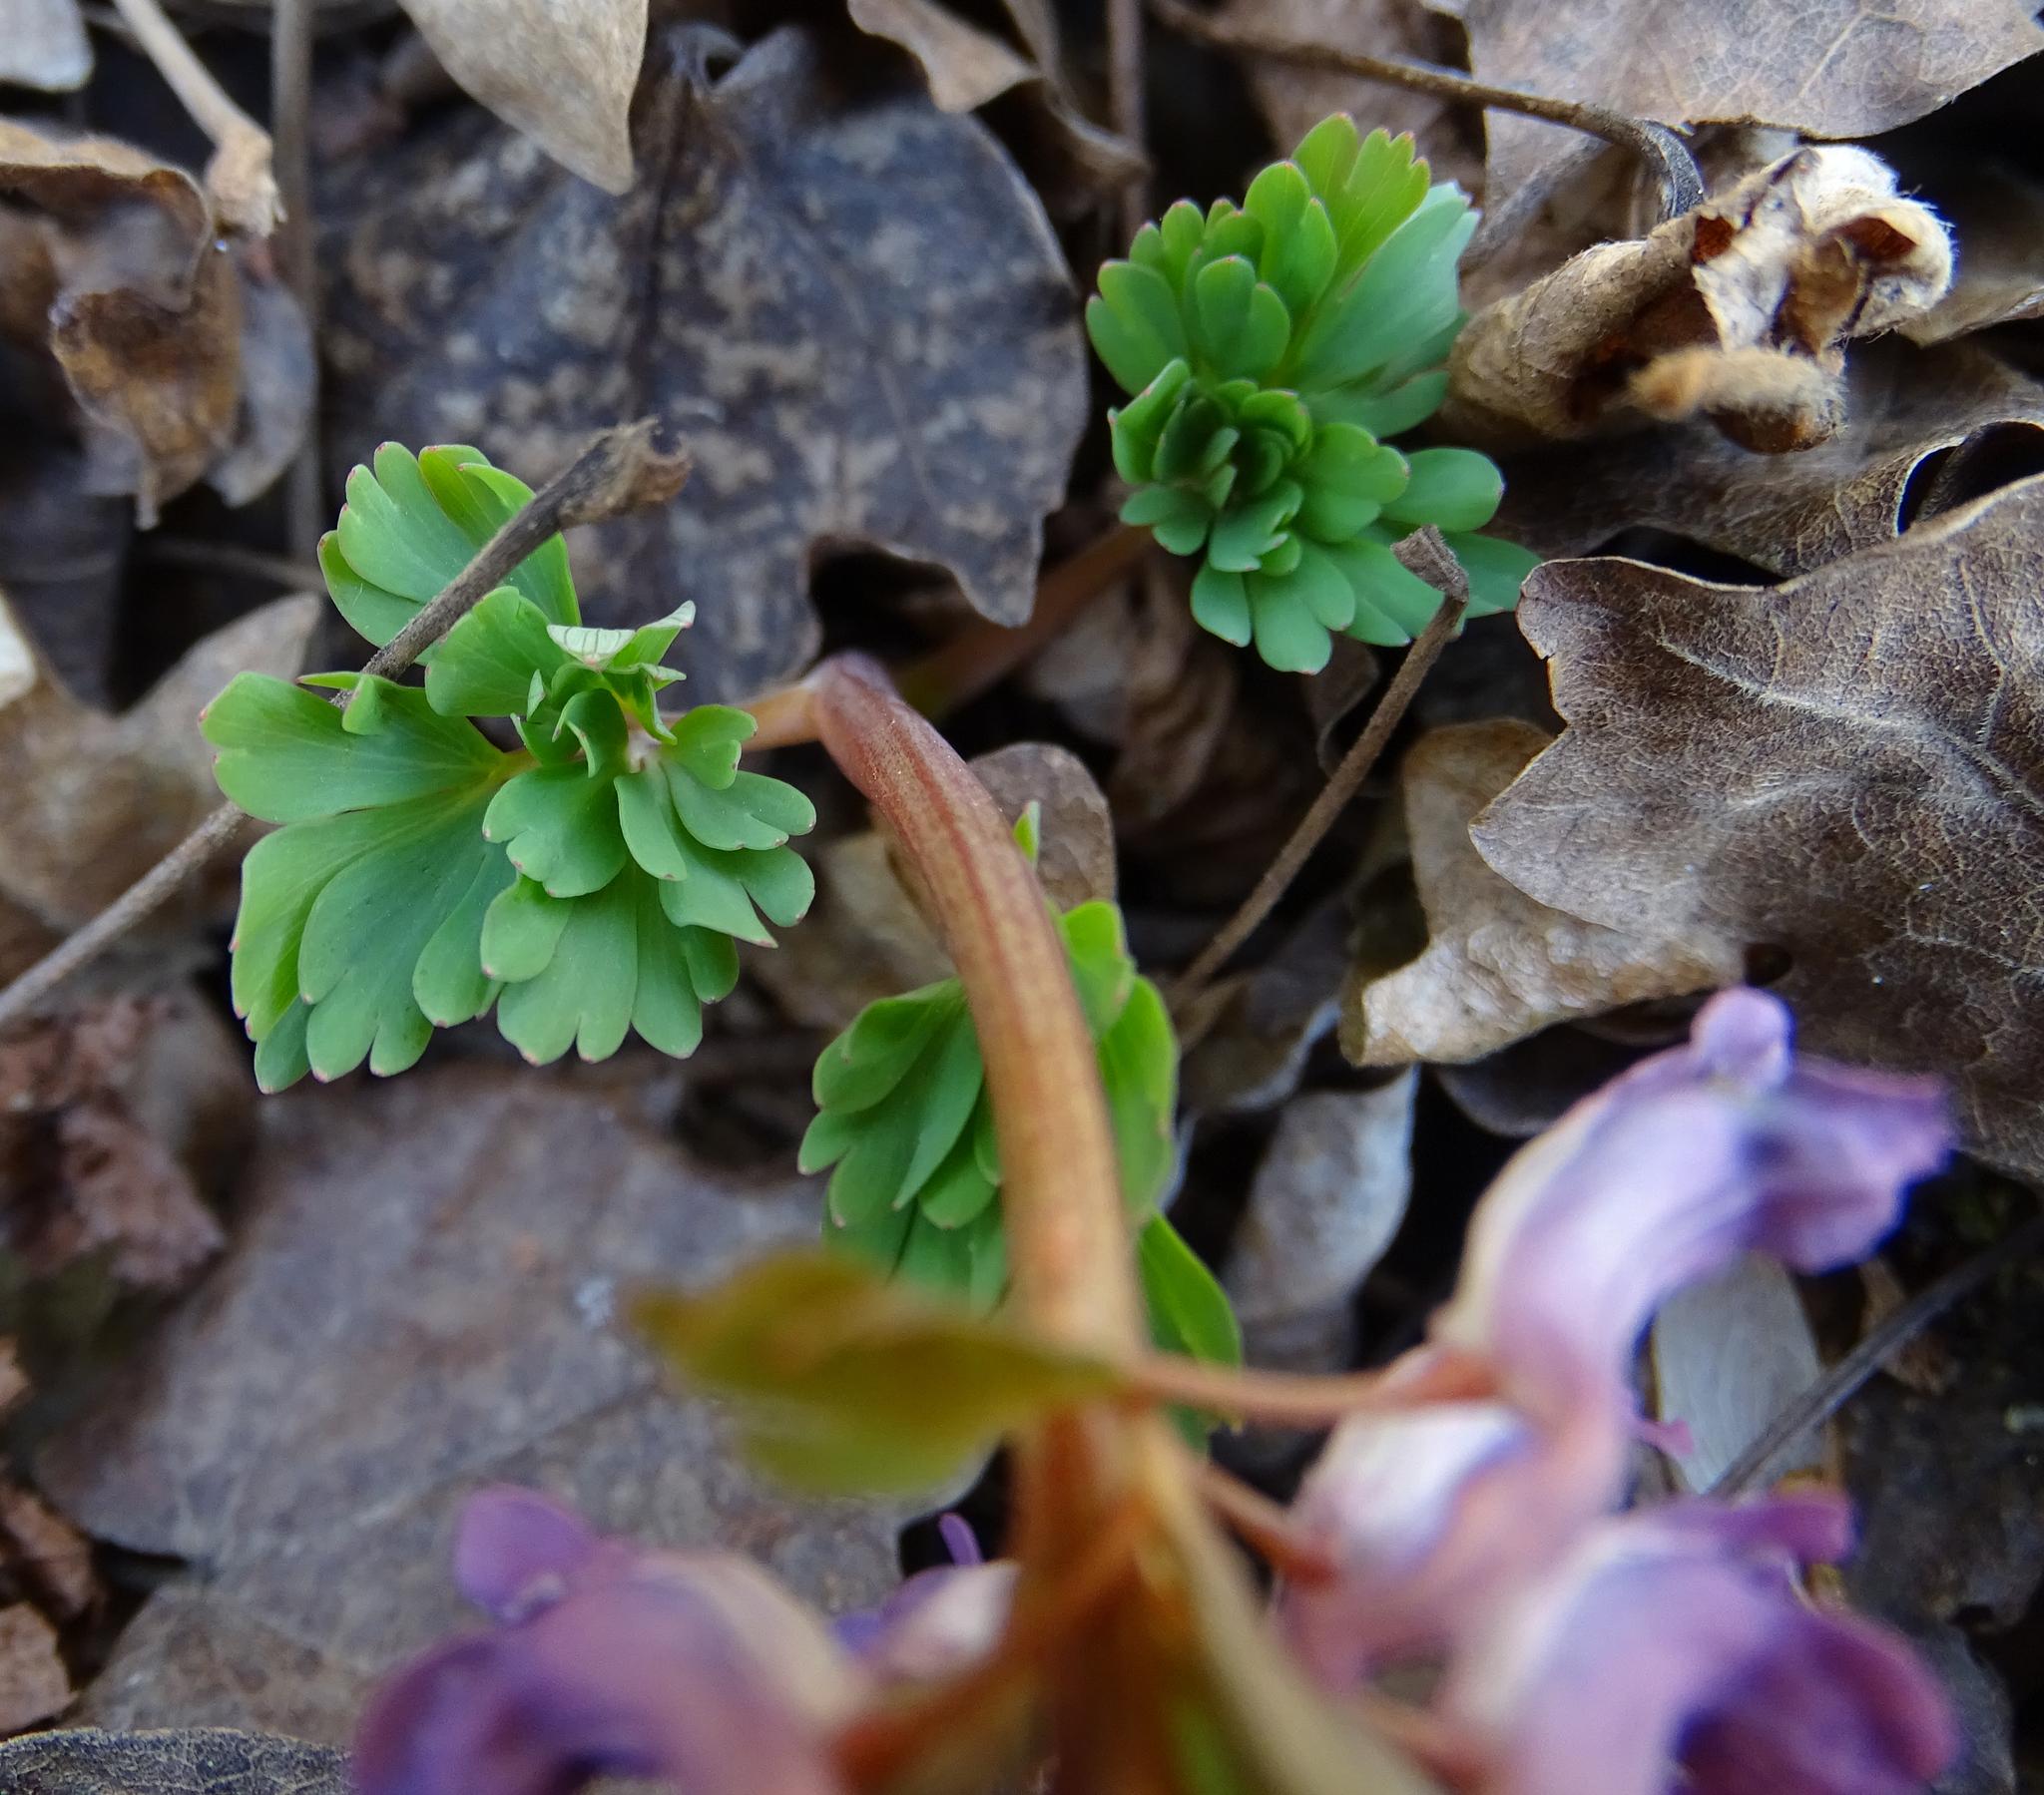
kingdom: Plantae
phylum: Tracheophyta
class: Magnoliopsida
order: Ranunculales
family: Papaveraceae
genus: Corydalis
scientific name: Corydalis solida
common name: Bird-in-a-bush
